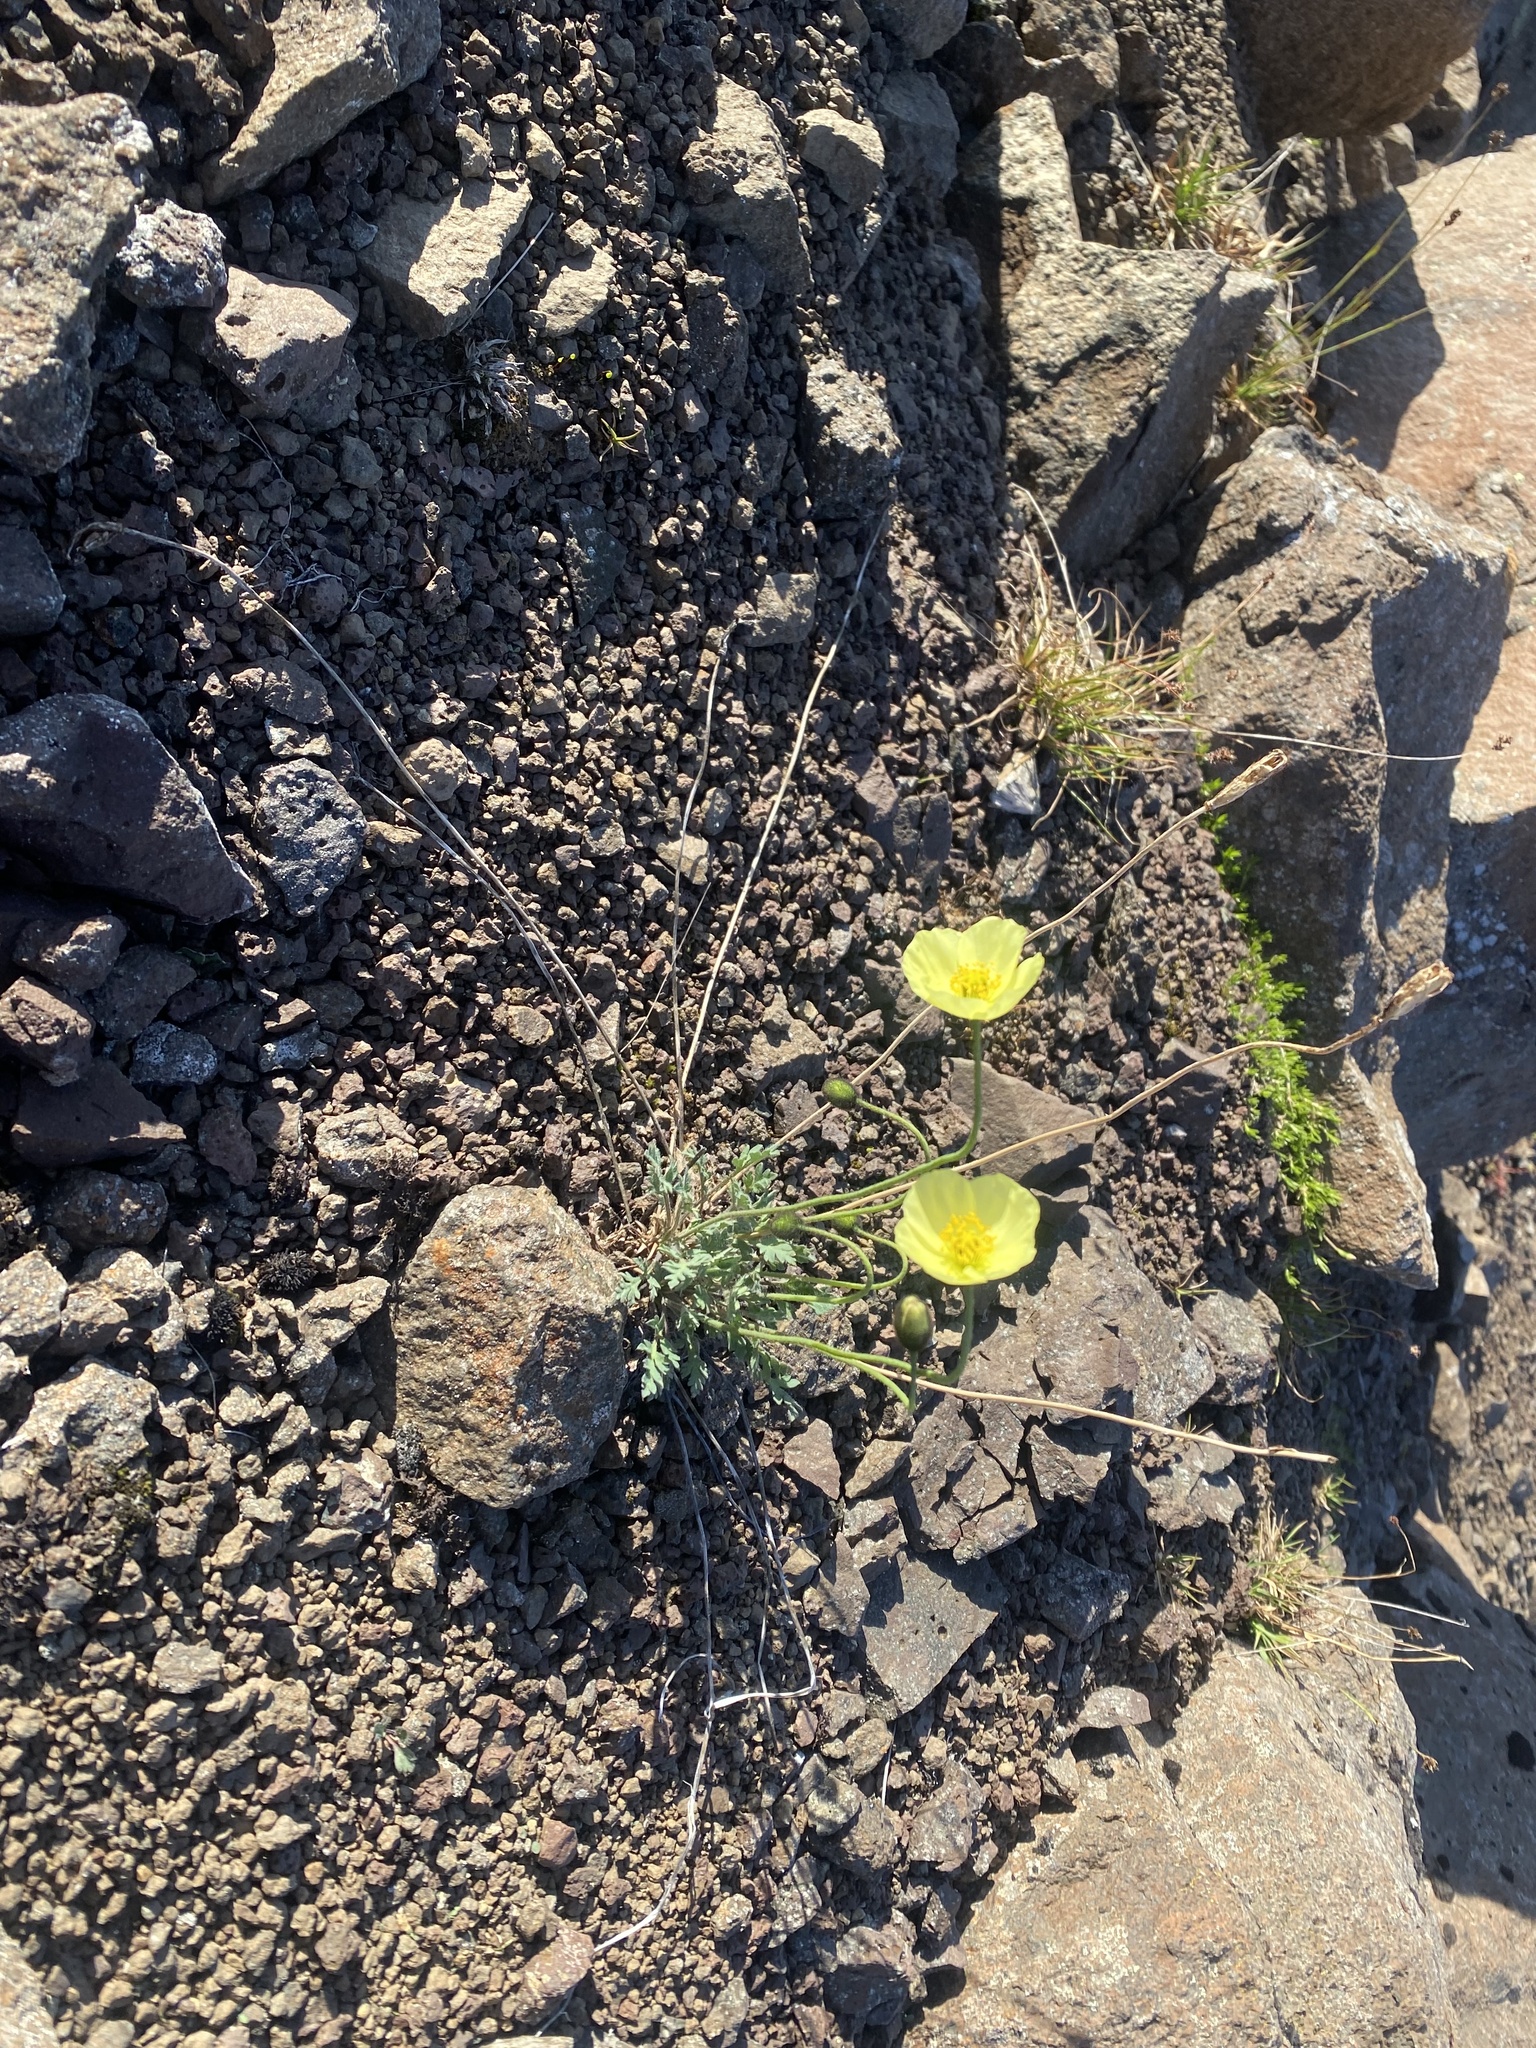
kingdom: Plantae
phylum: Tracheophyta
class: Magnoliopsida
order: Ranunculales
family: Papaveraceae
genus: Papaver
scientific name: Papaver angustifolium
